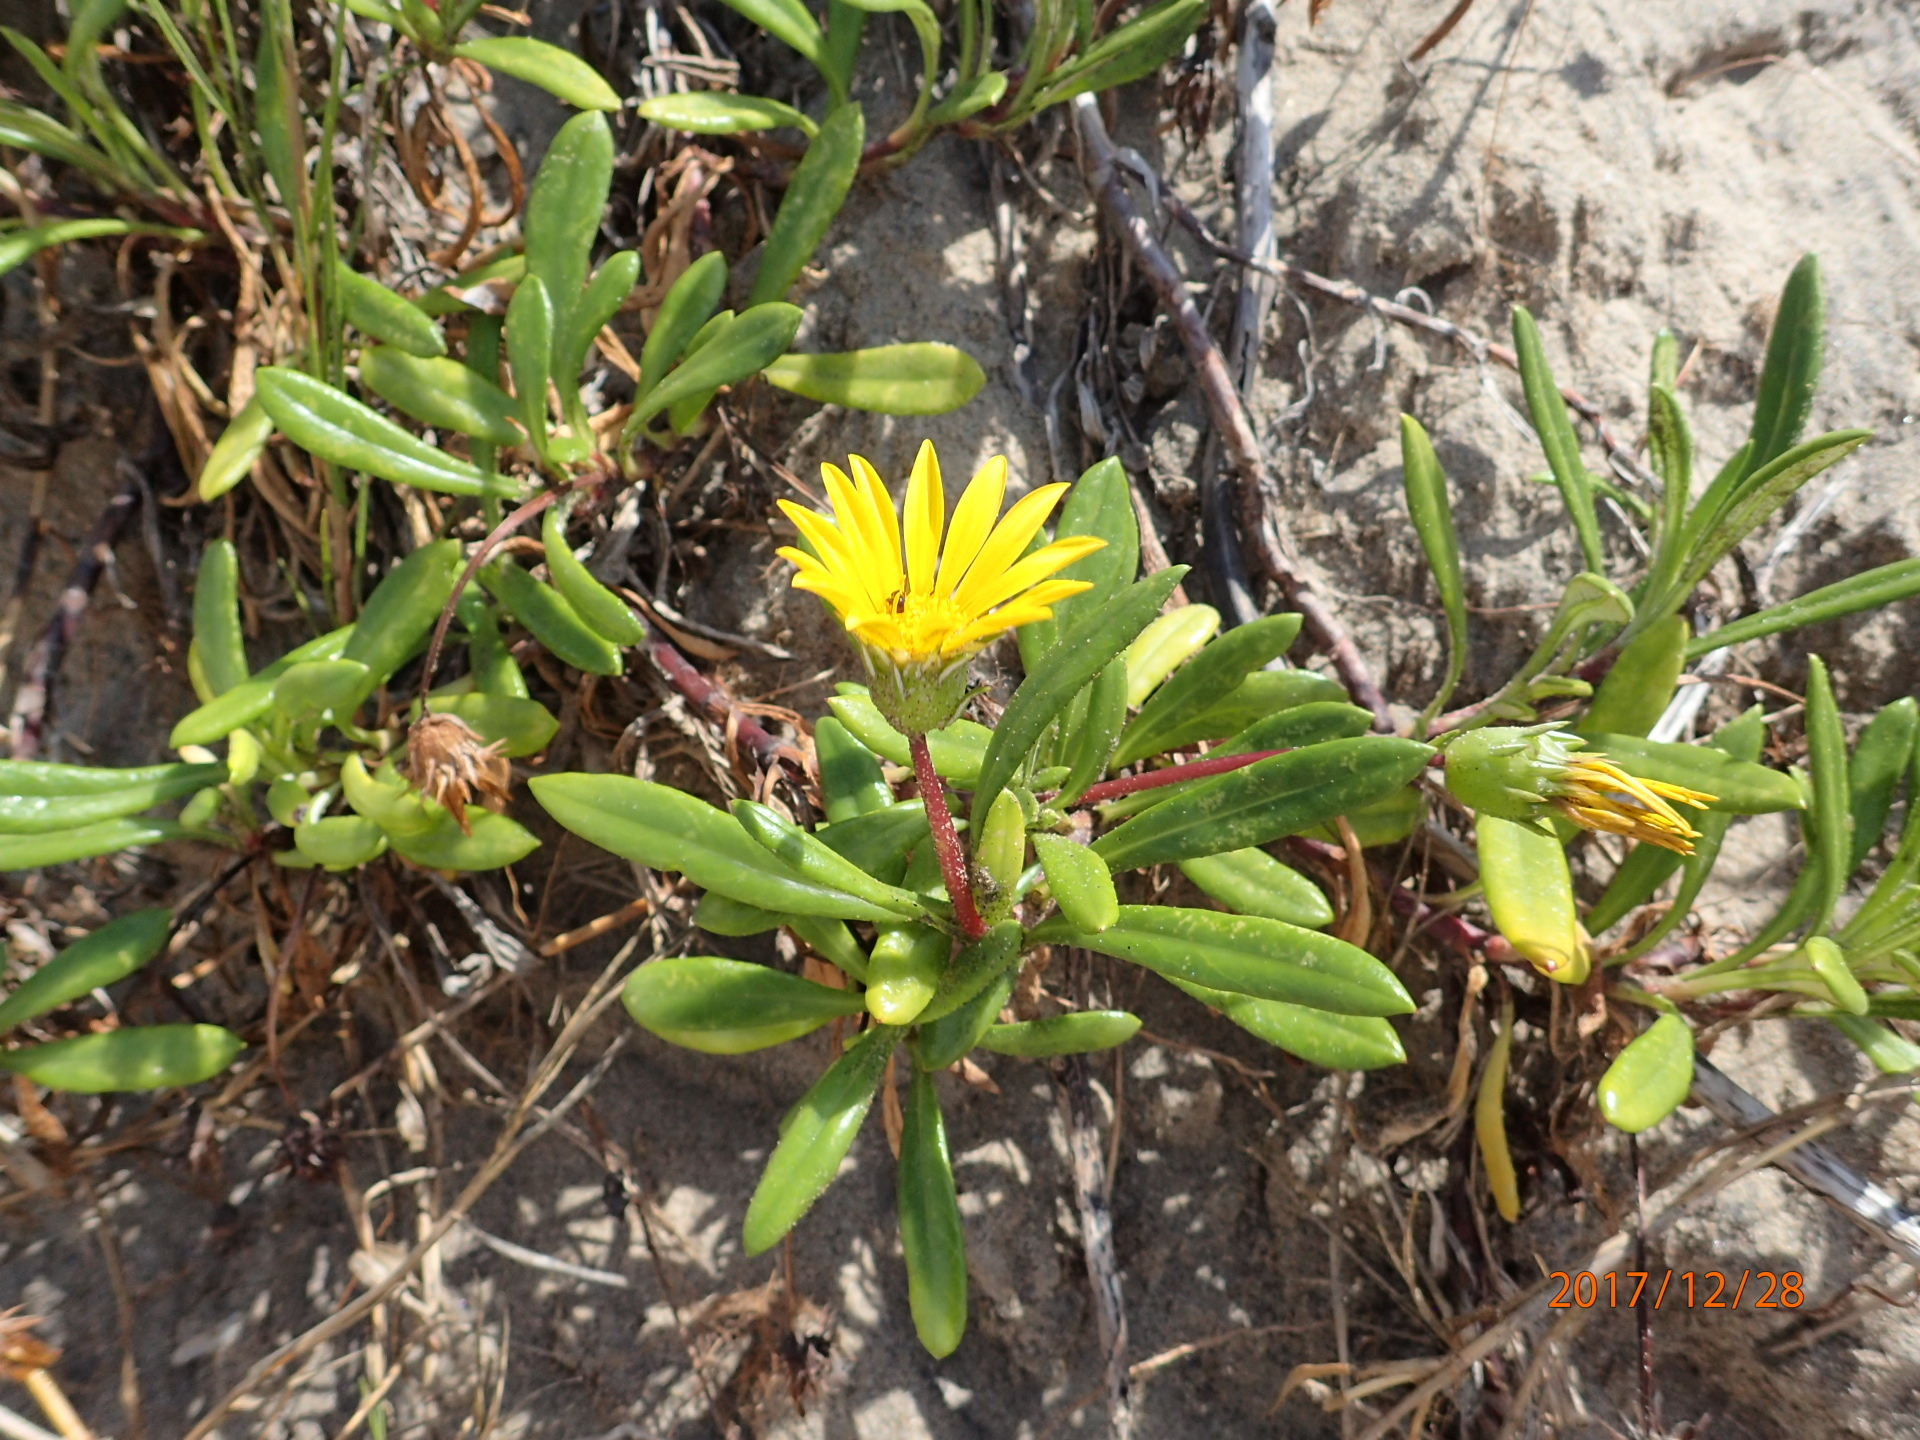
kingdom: Plantae
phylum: Tracheophyta
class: Magnoliopsida
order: Asterales
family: Asteraceae
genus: Gazania
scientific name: Gazania rigens
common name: Treasureflower
